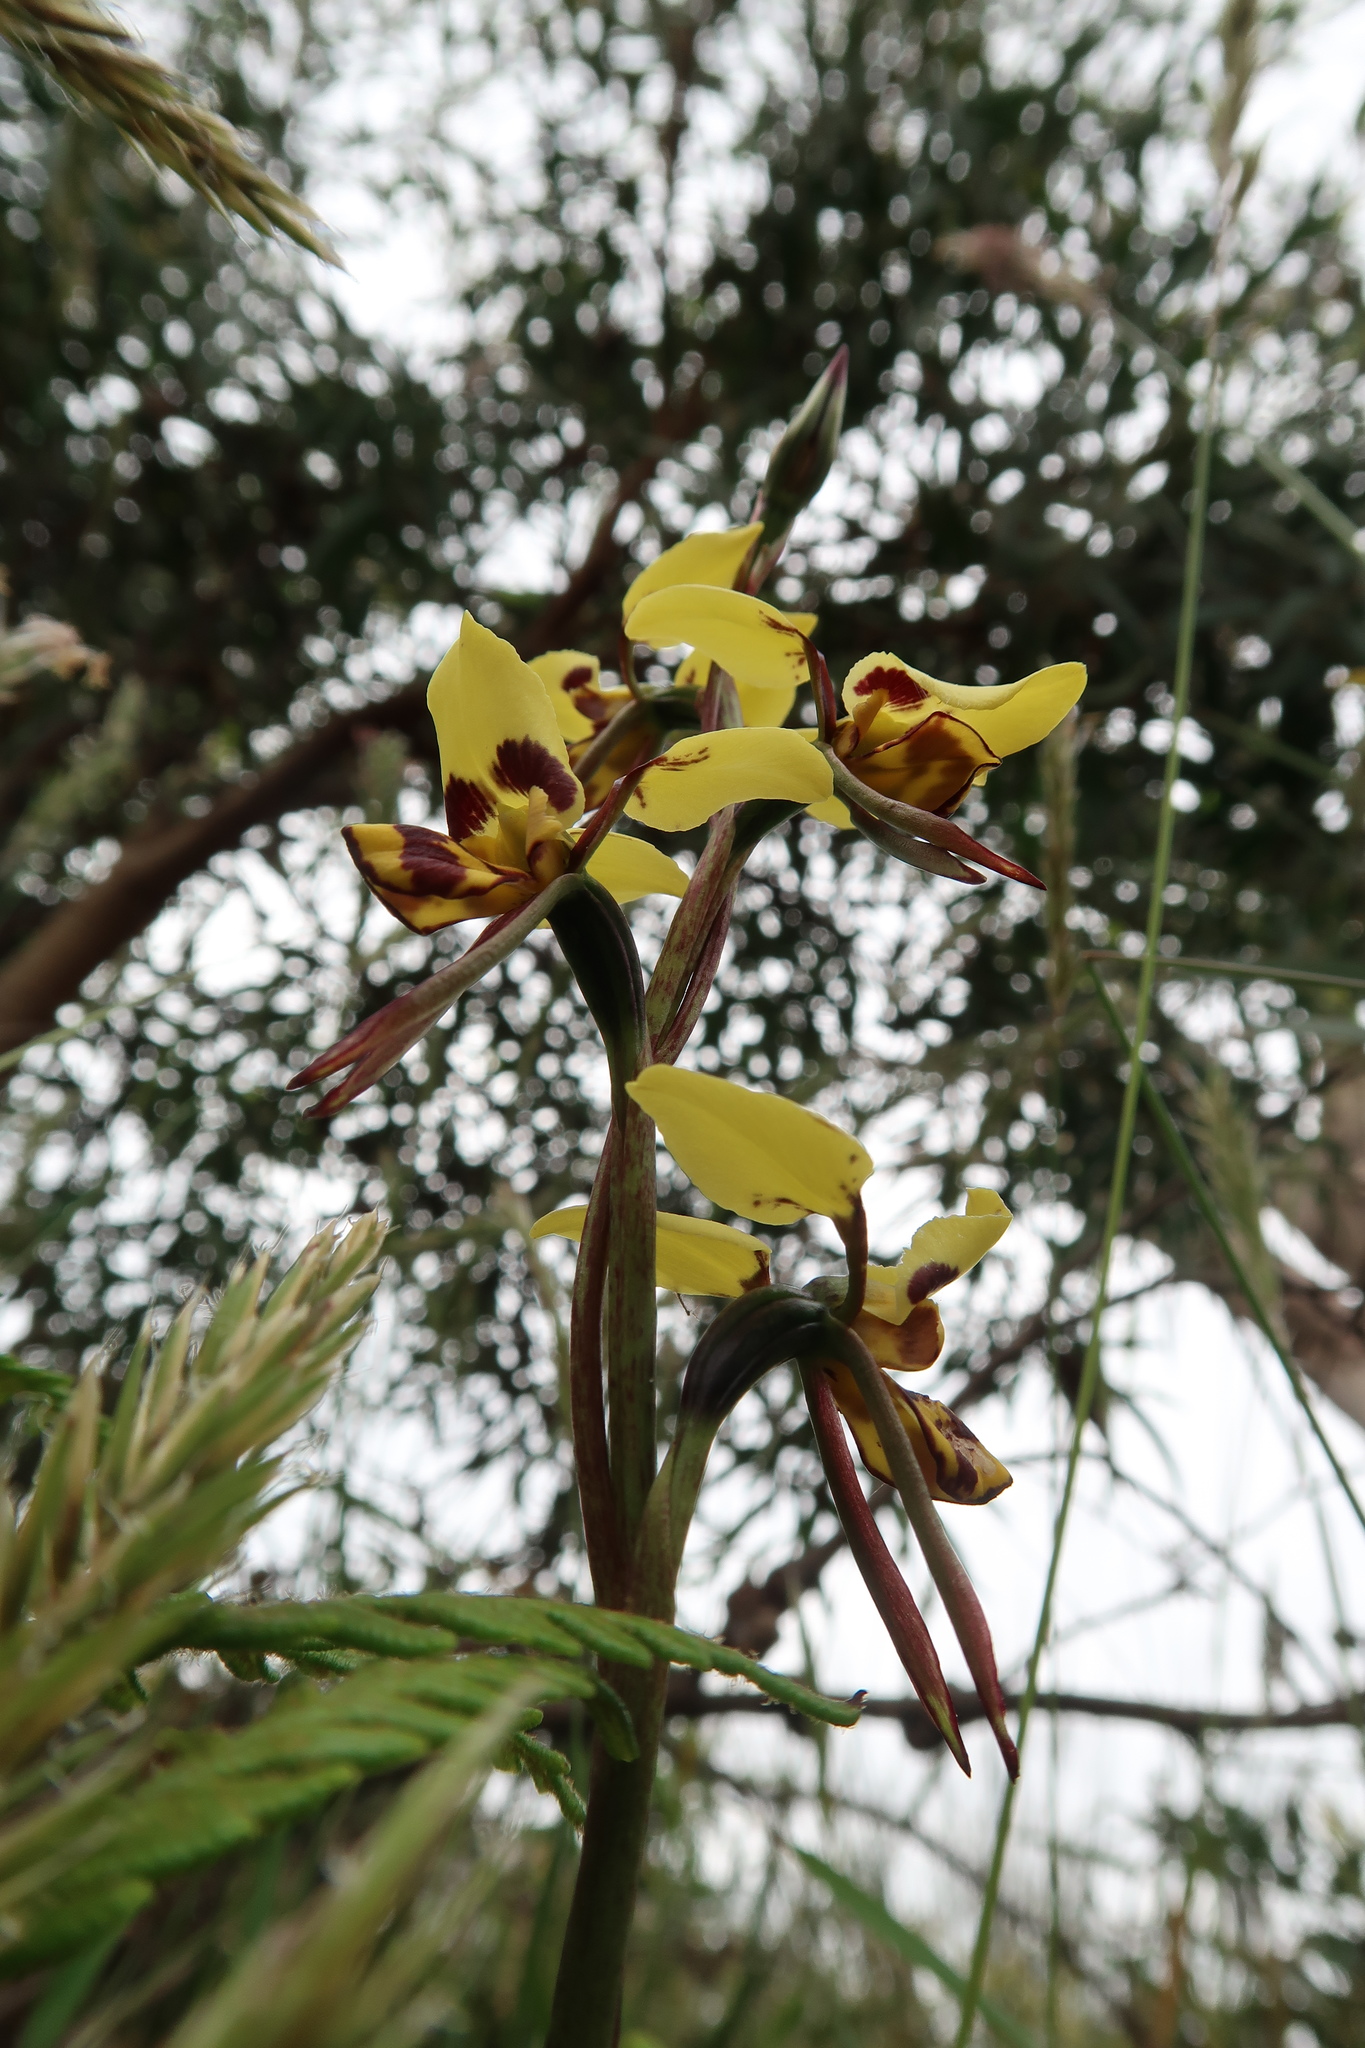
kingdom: Plantae
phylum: Tracheophyta
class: Liliopsida
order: Asparagales
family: Orchidaceae
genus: Diuris
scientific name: Diuris sulphurea
